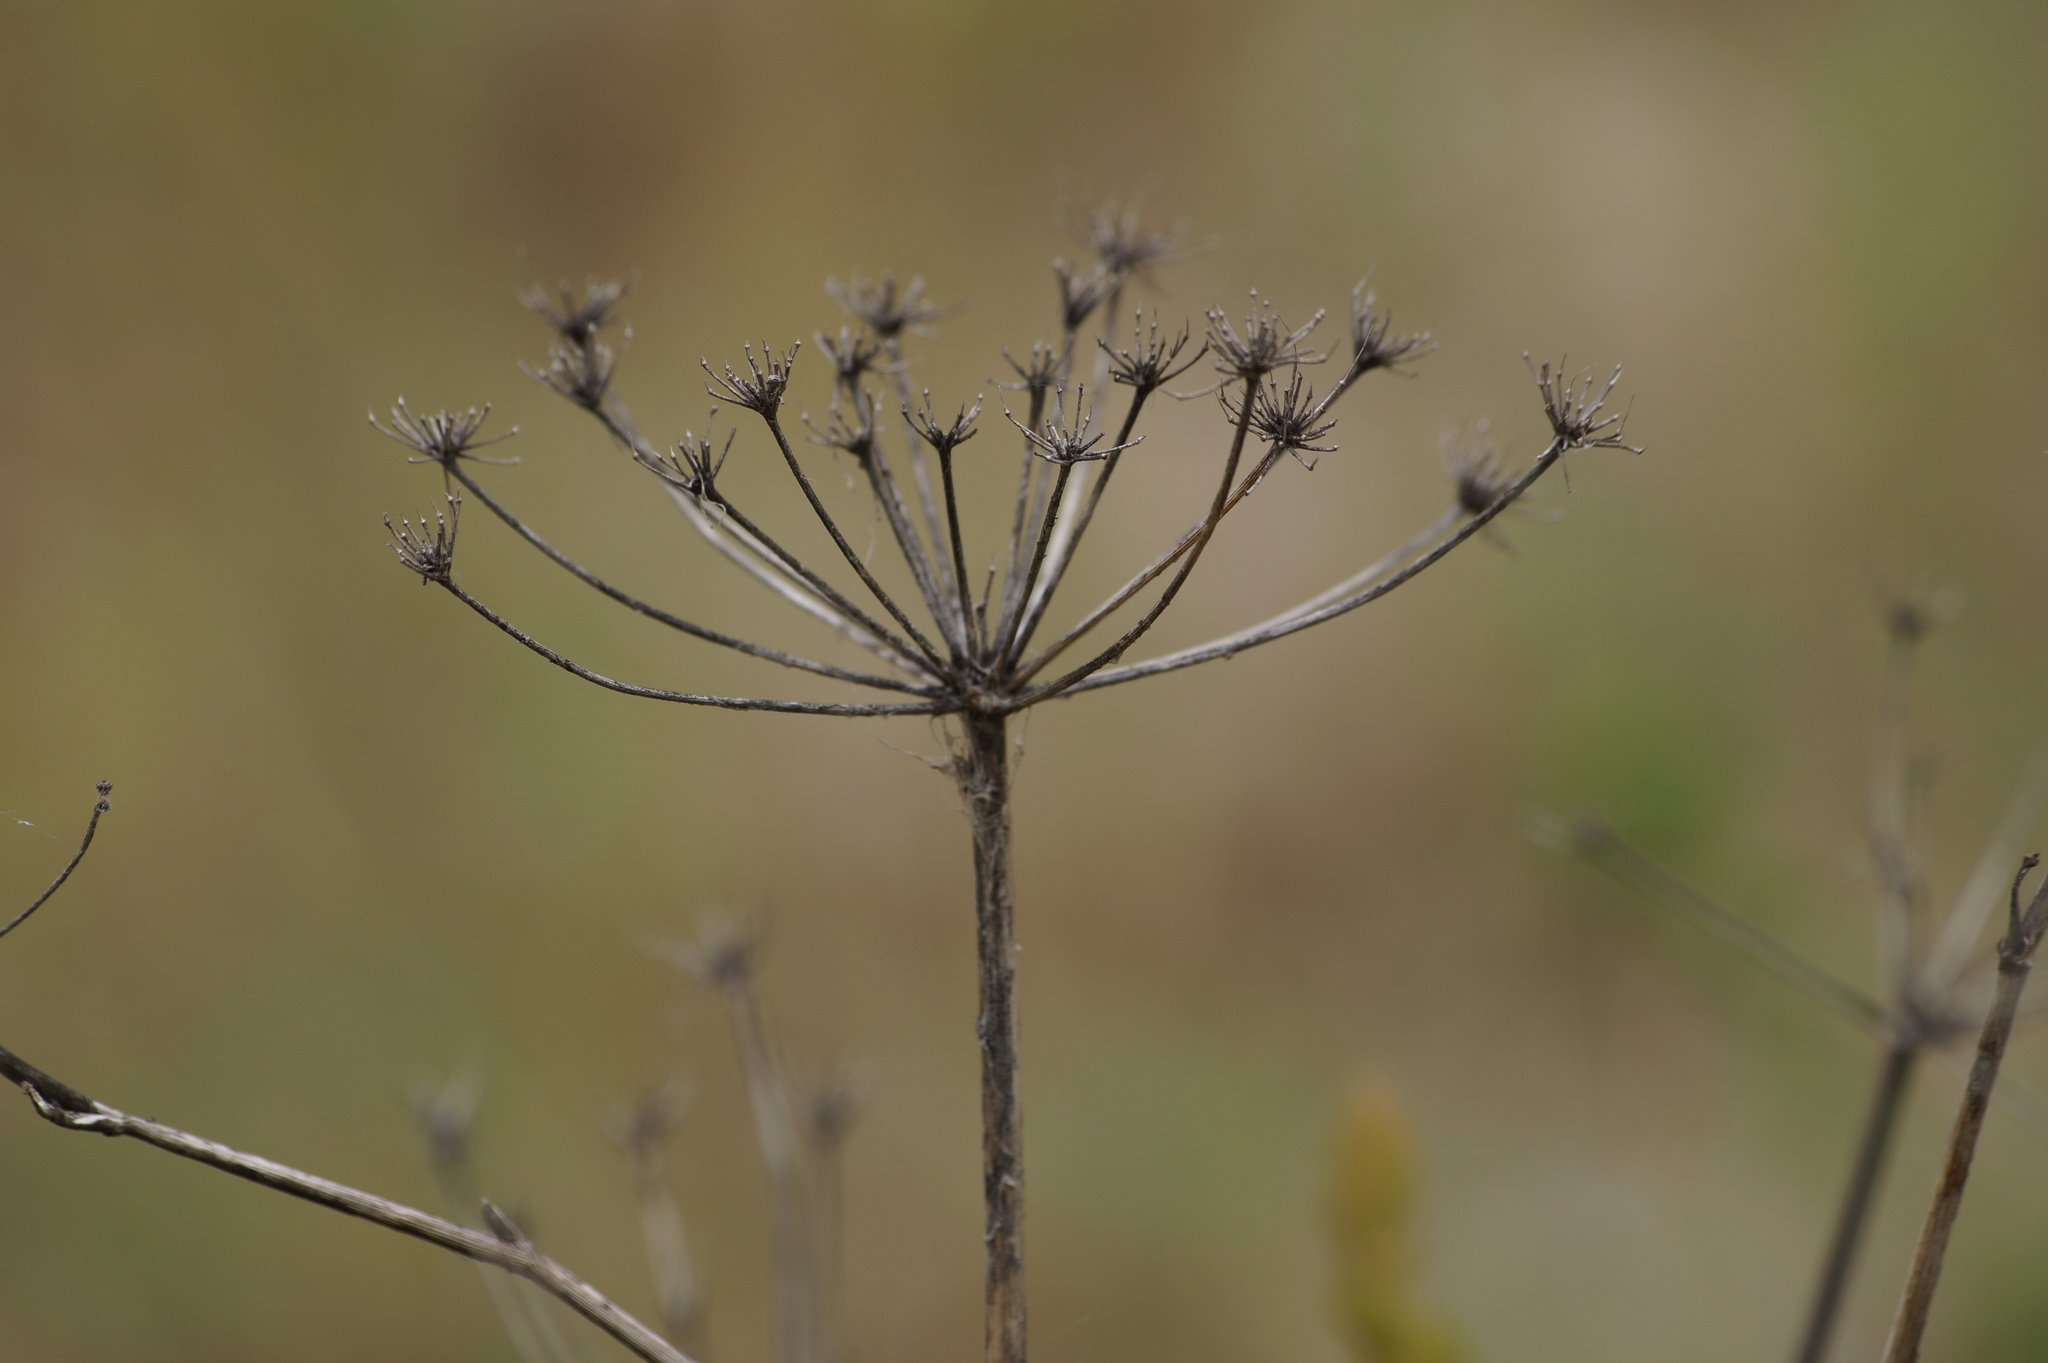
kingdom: Plantae
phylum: Tracheophyta
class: Magnoliopsida
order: Apiales
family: Apiaceae
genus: Foeniculum
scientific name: Foeniculum vulgare
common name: Fennel
